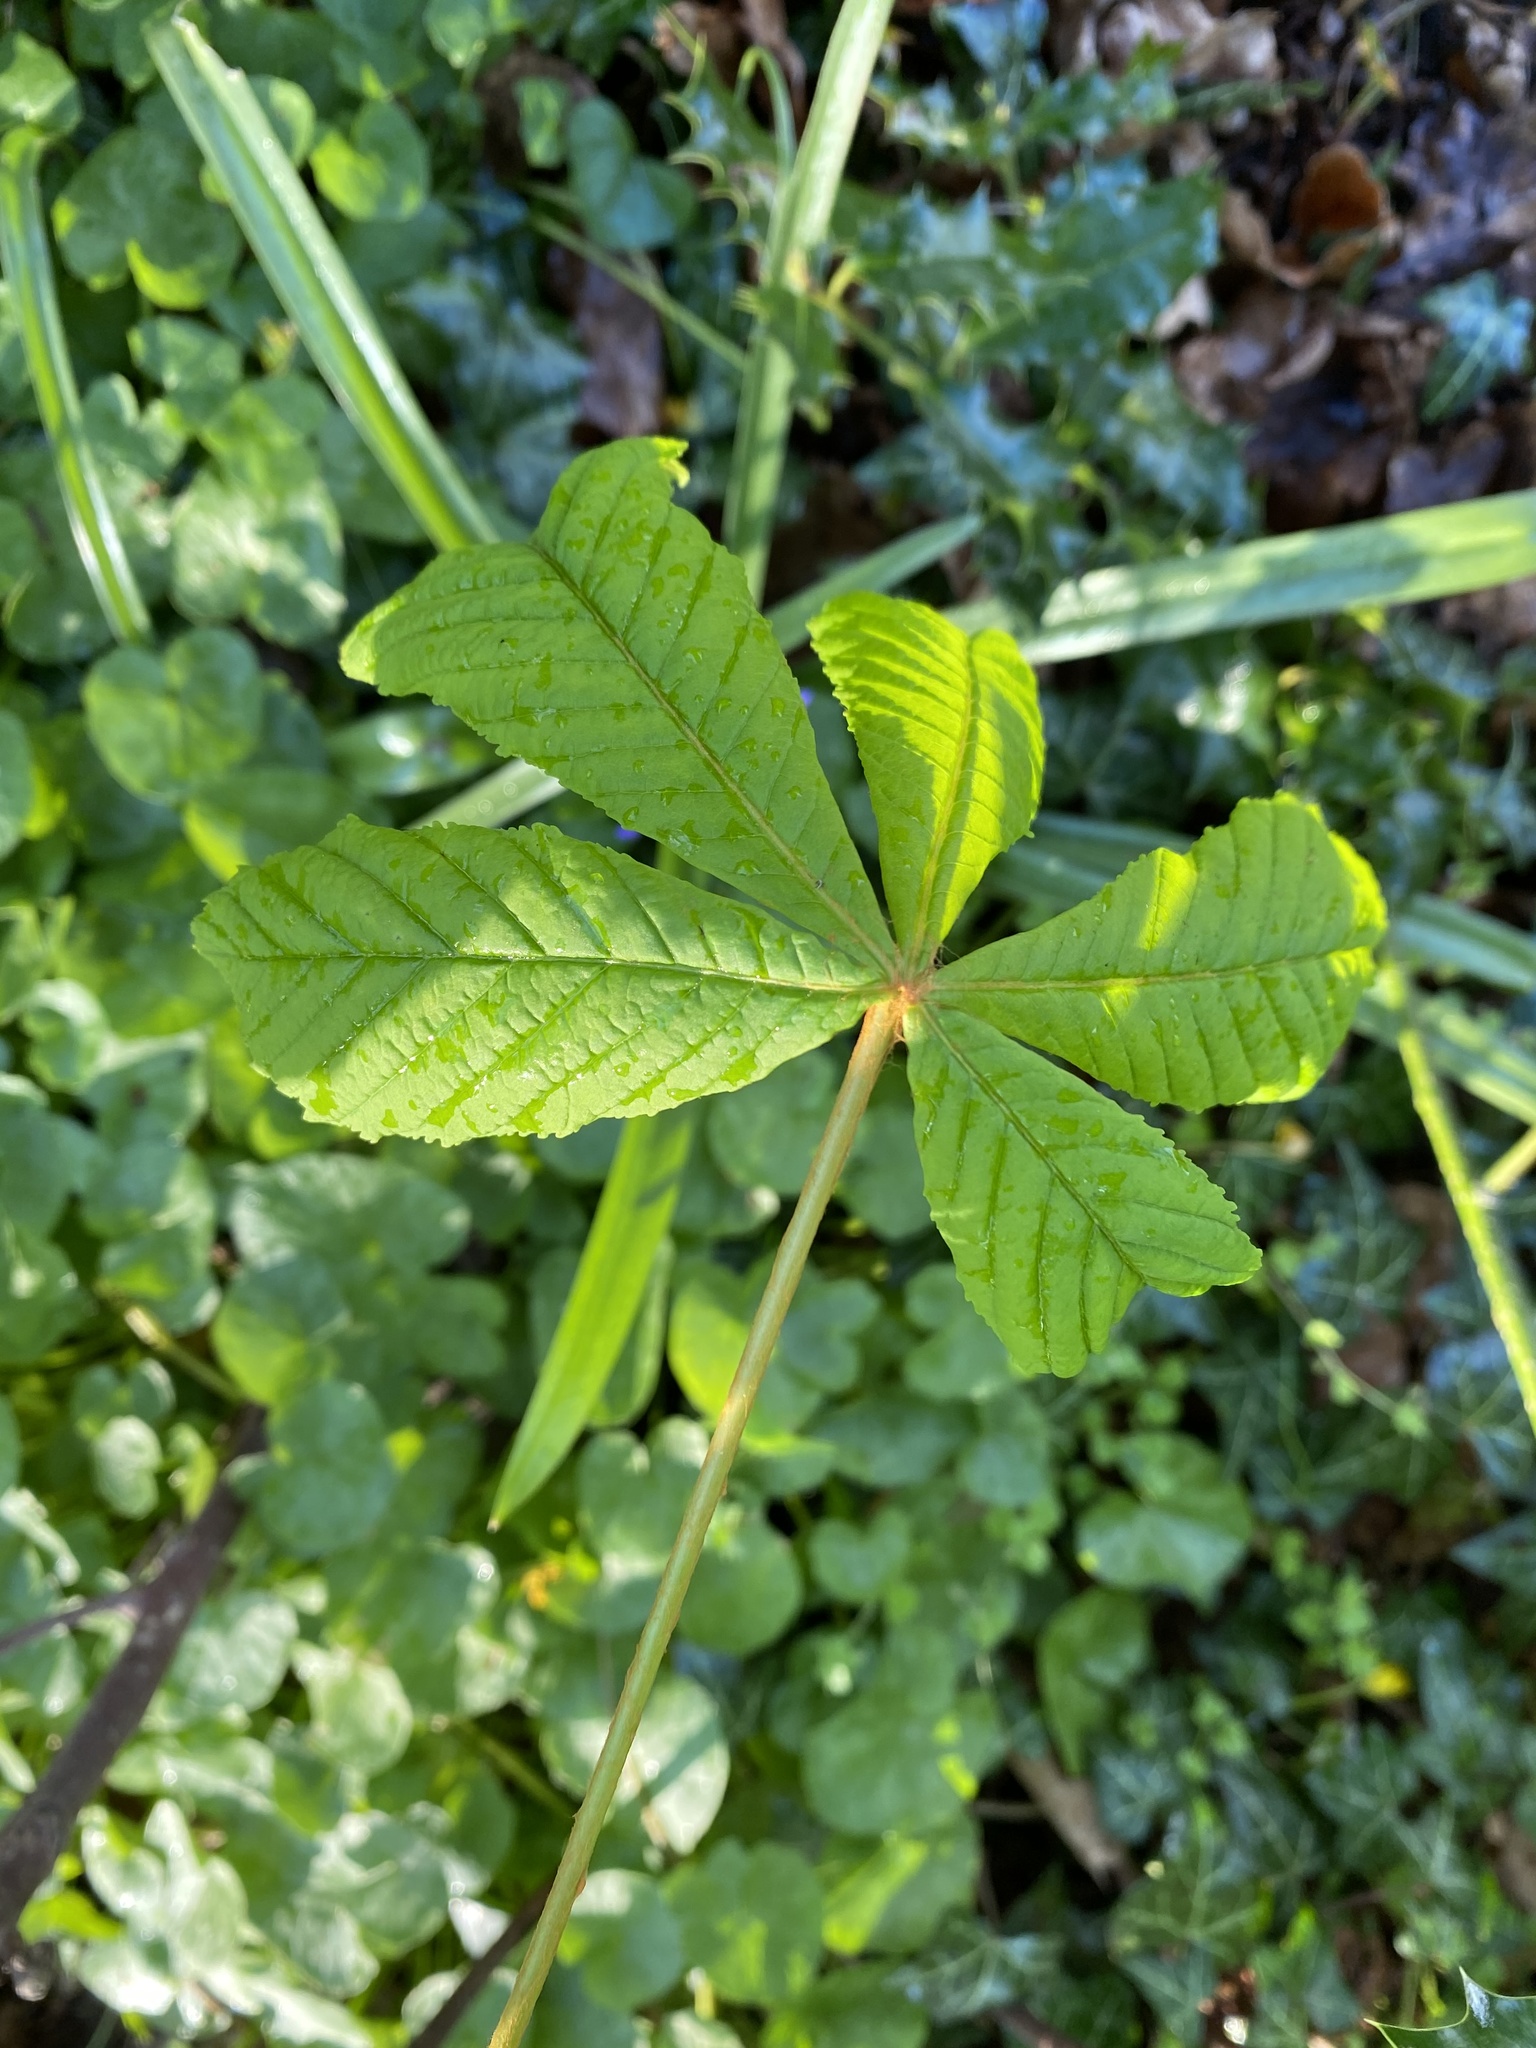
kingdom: Plantae
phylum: Tracheophyta
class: Magnoliopsida
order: Sapindales
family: Sapindaceae
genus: Aesculus
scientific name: Aesculus hippocastanum
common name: Horse-chestnut
